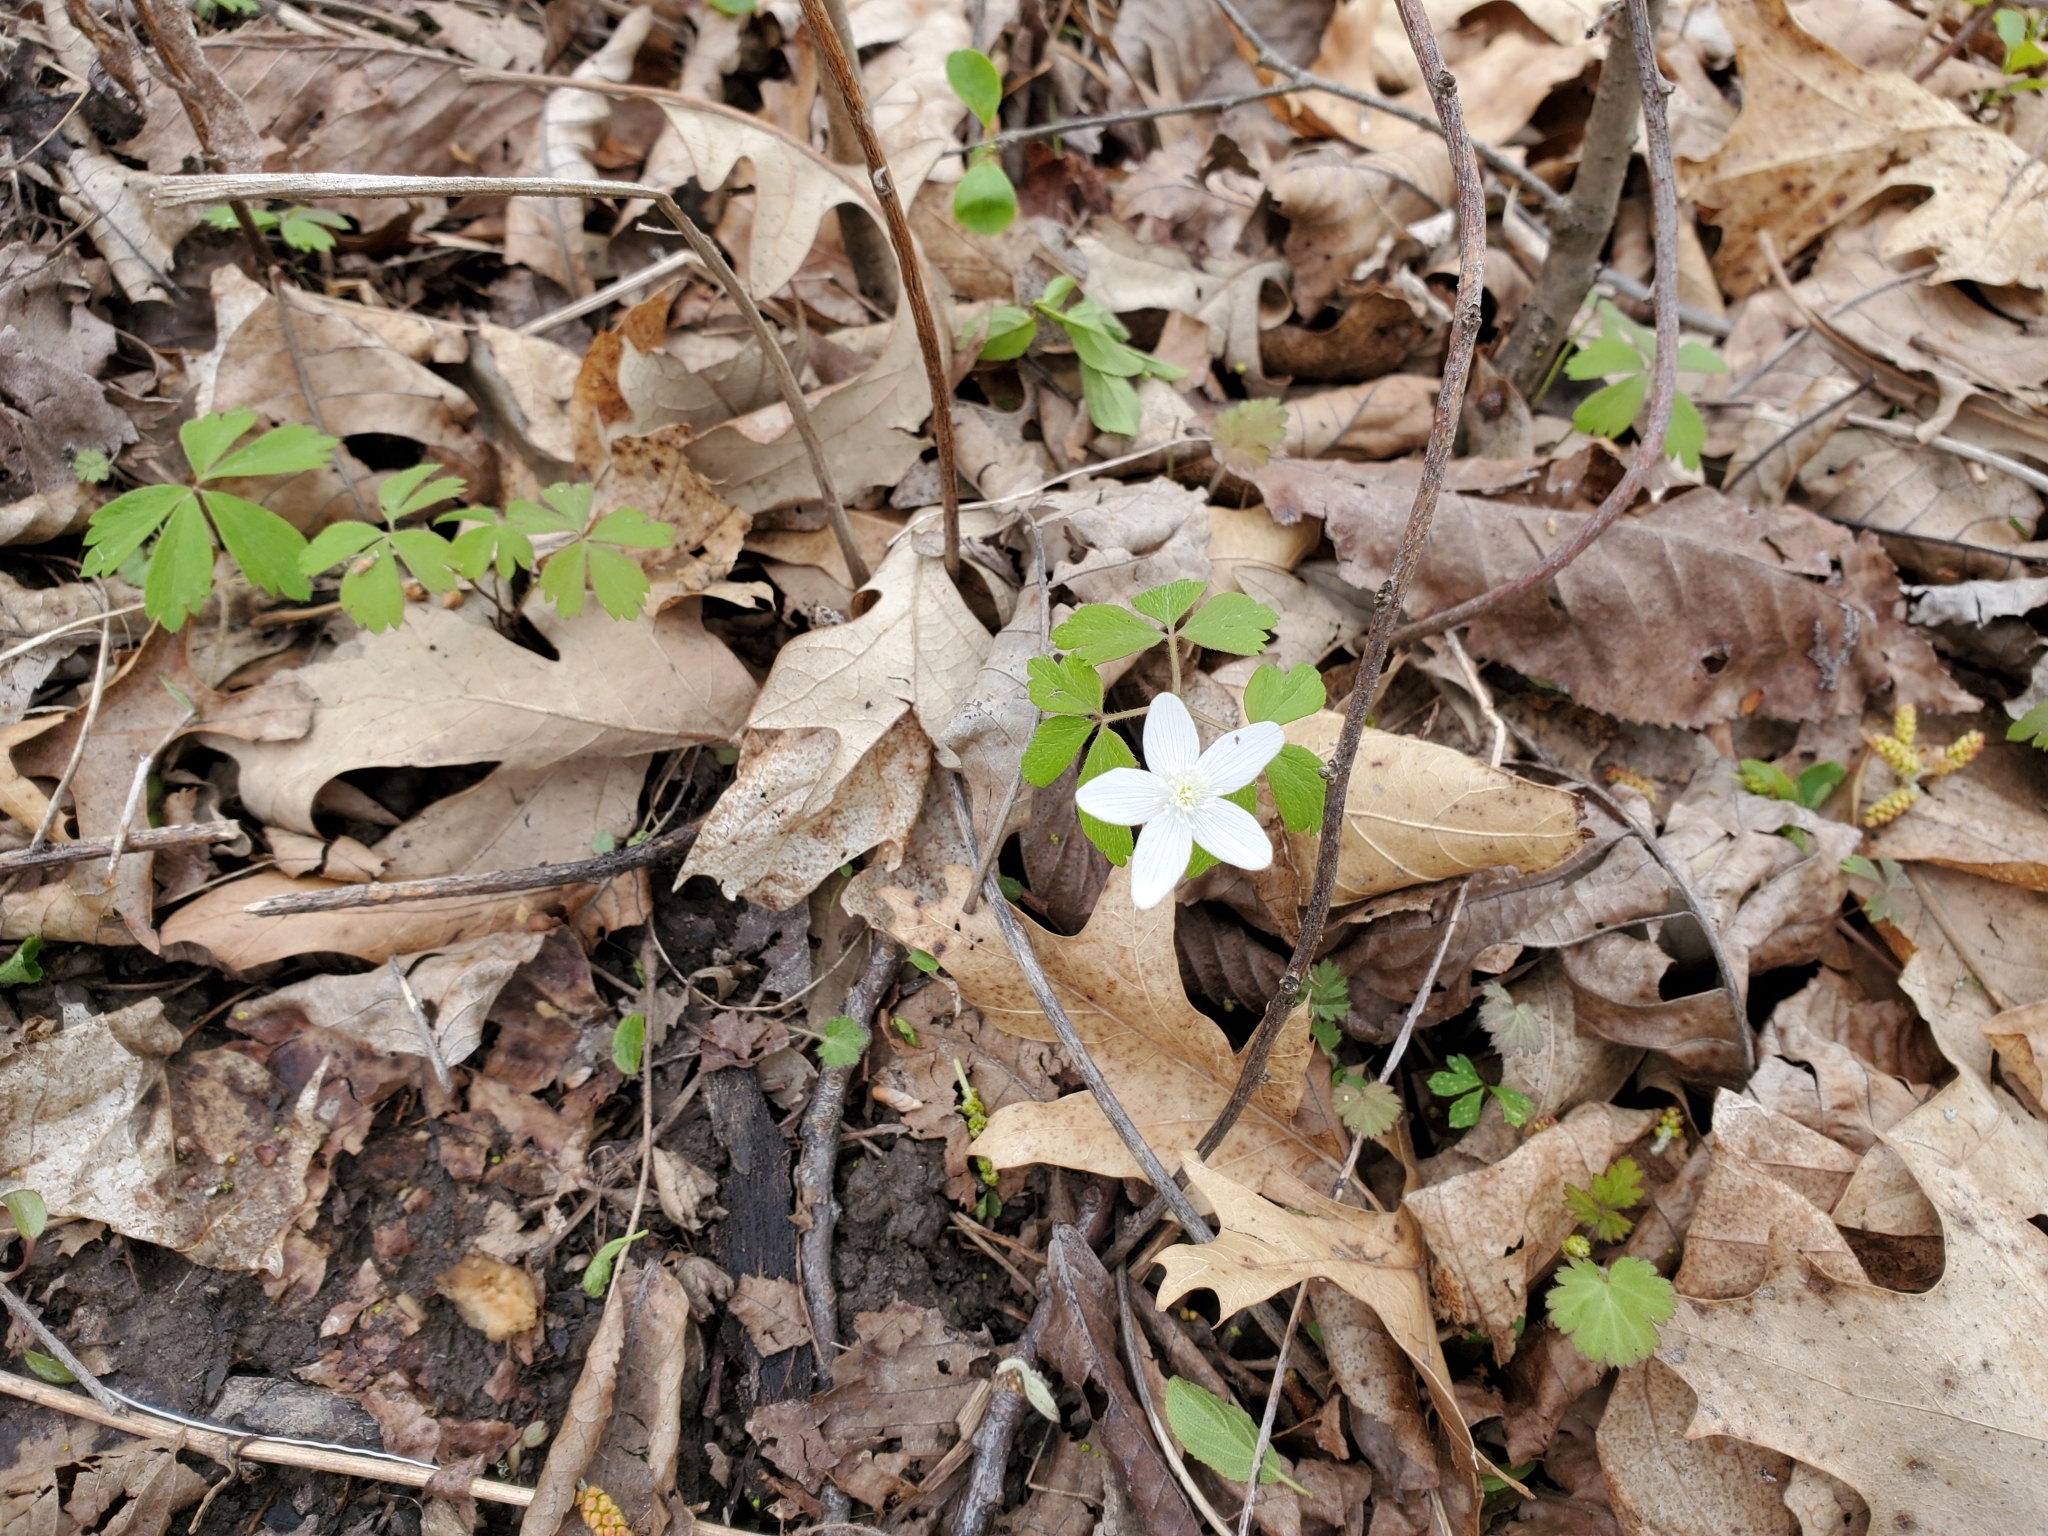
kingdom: Plantae
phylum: Tracheophyta
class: Magnoliopsida
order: Ranunculales
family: Ranunculaceae
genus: Anemone
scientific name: Anemone quinquefolia
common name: Wood anemone
